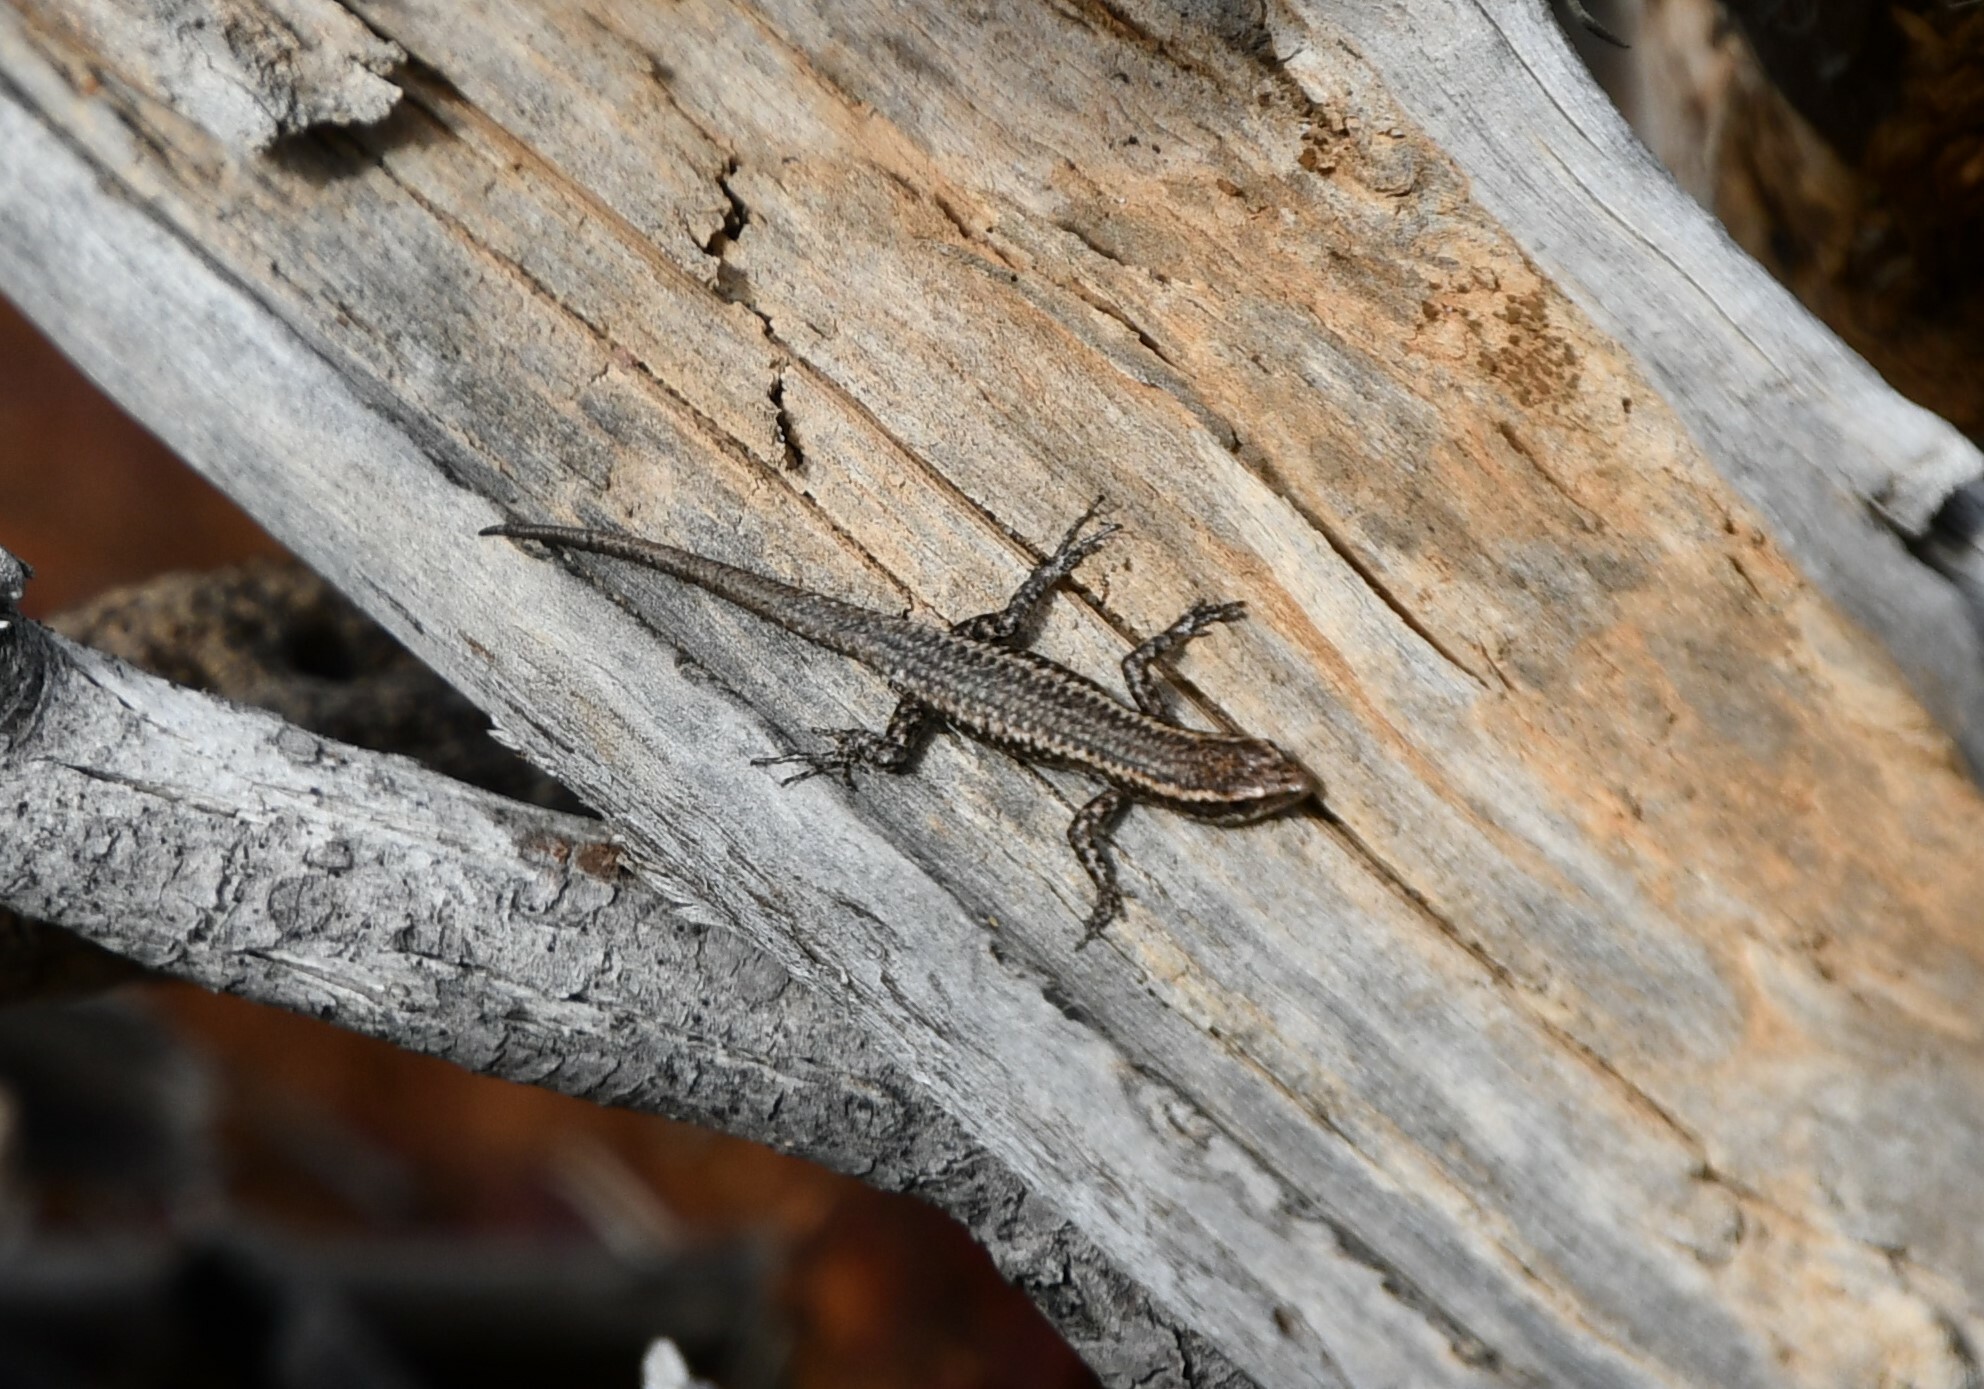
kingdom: Animalia
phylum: Chordata
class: Squamata
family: Scincidae
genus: Cryptoblepharus
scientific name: Cryptoblepharus buchananii
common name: Buchanan's snake-eyed skink
